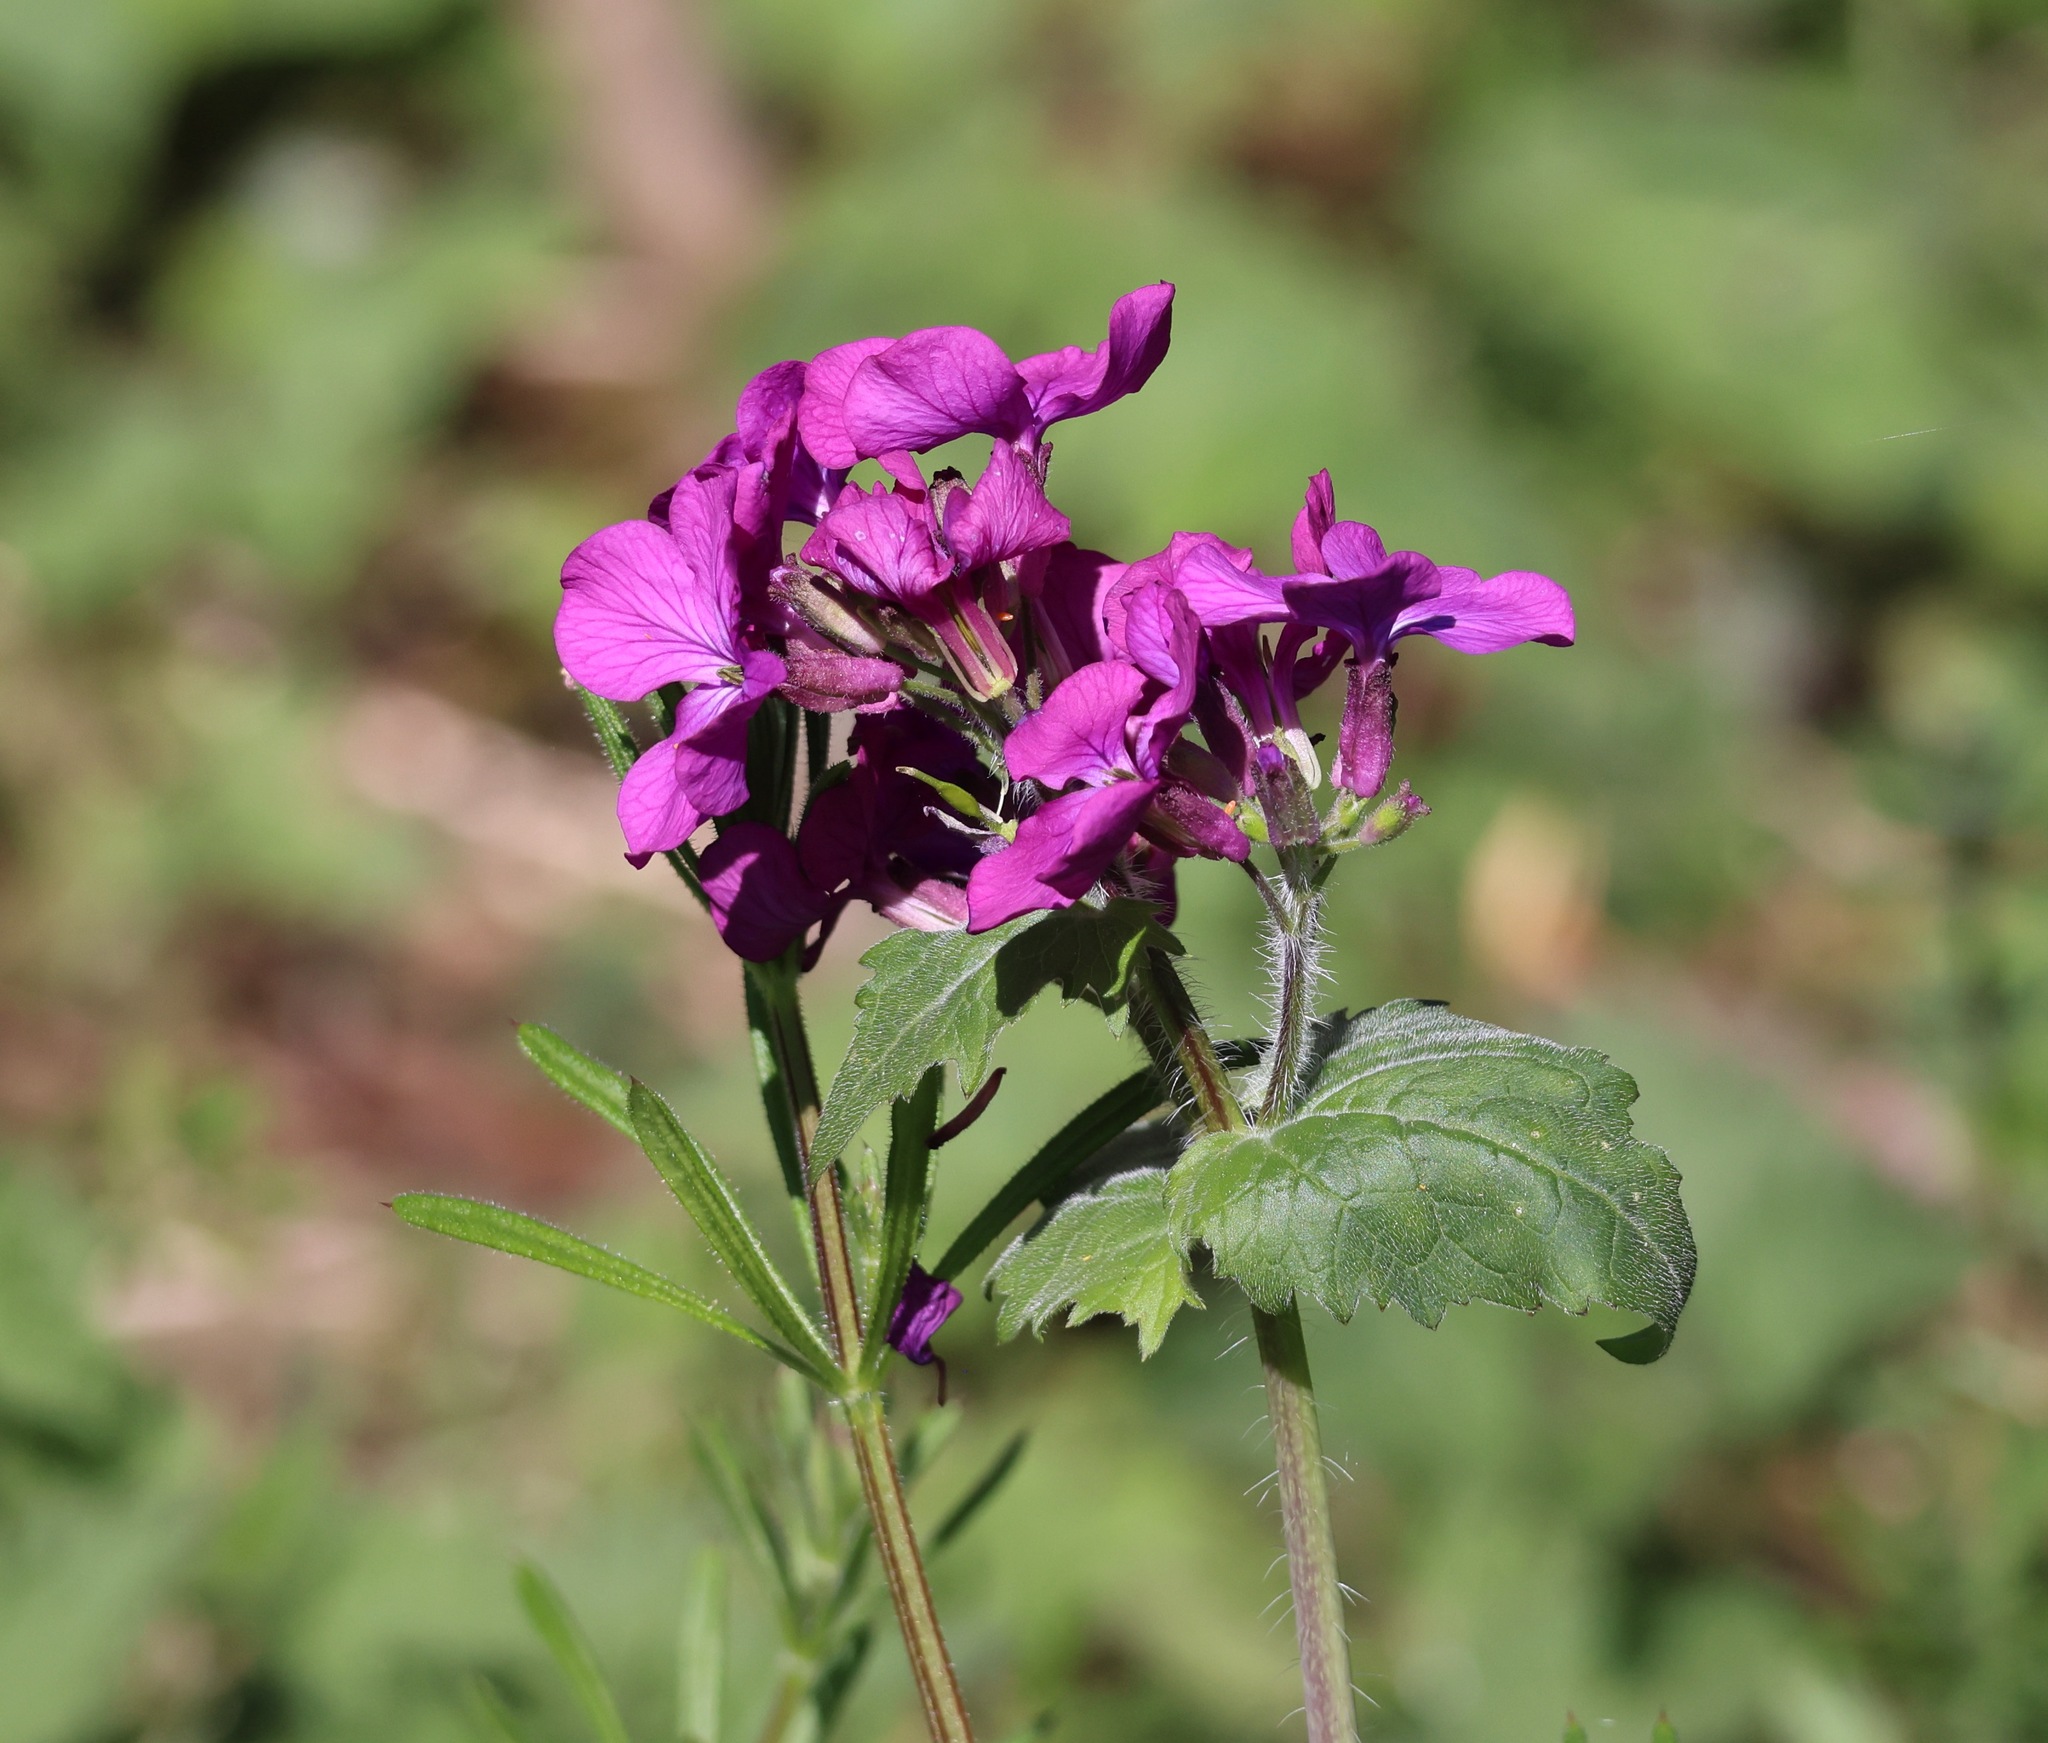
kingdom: Plantae
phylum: Tracheophyta
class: Magnoliopsida
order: Brassicales
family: Brassicaceae
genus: Lunaria
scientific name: Lunaria annua
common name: Honesty
